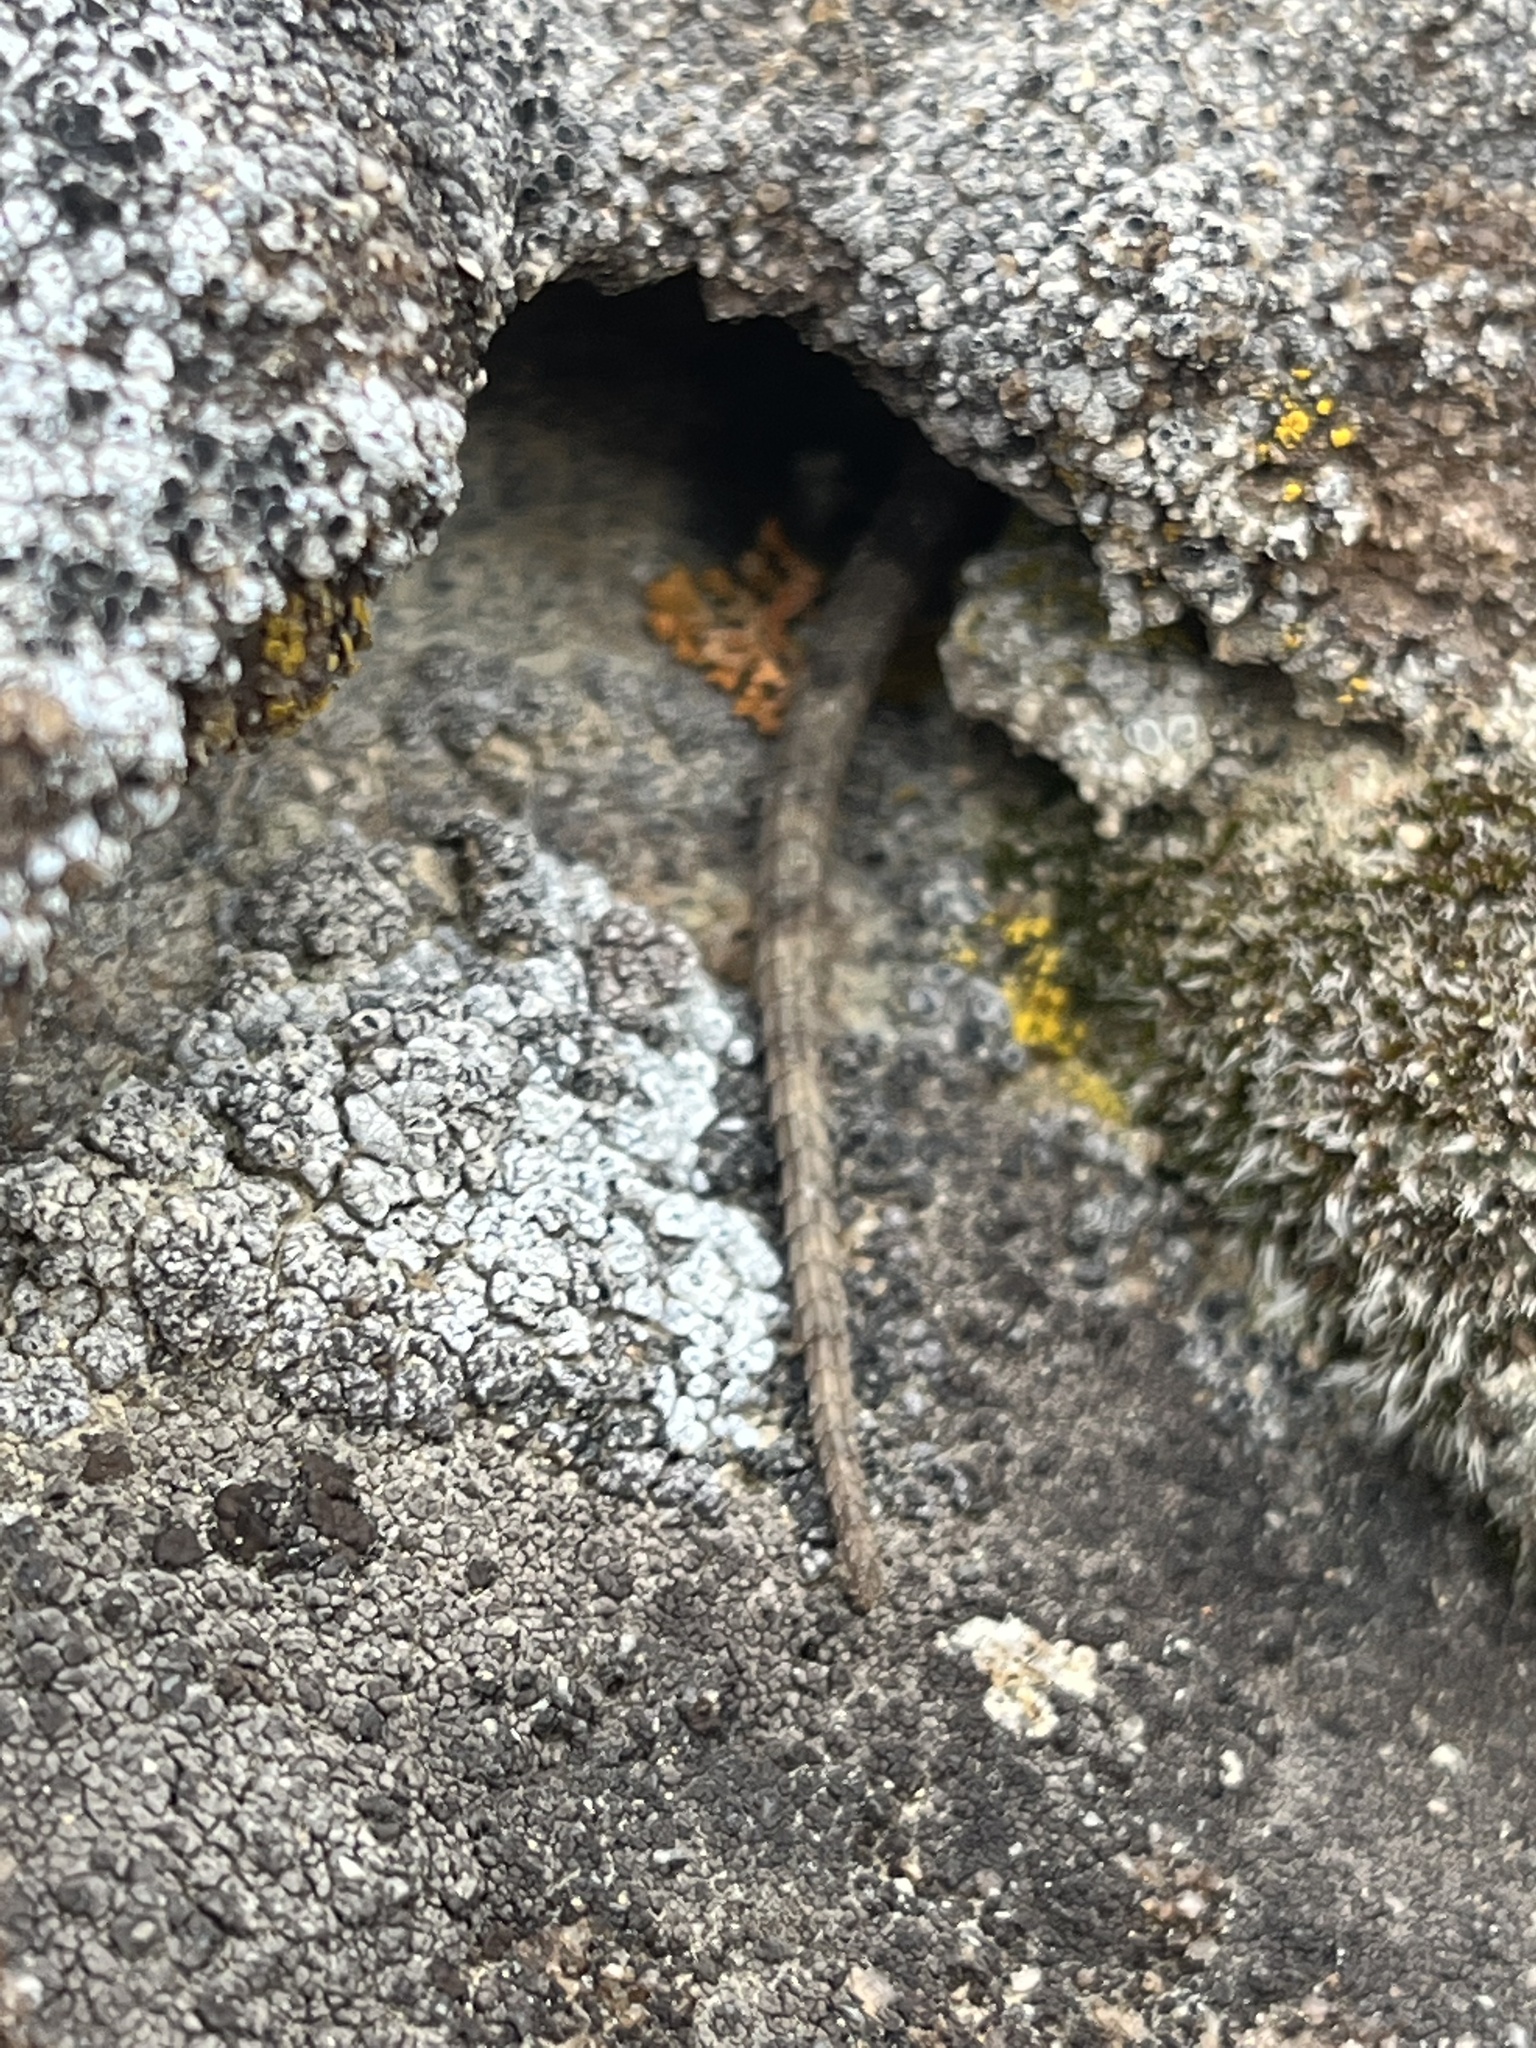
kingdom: Animalia
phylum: Chordata
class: Squamata
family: Phrynosomatidae
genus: Sceloporus
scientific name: Sceloporus
